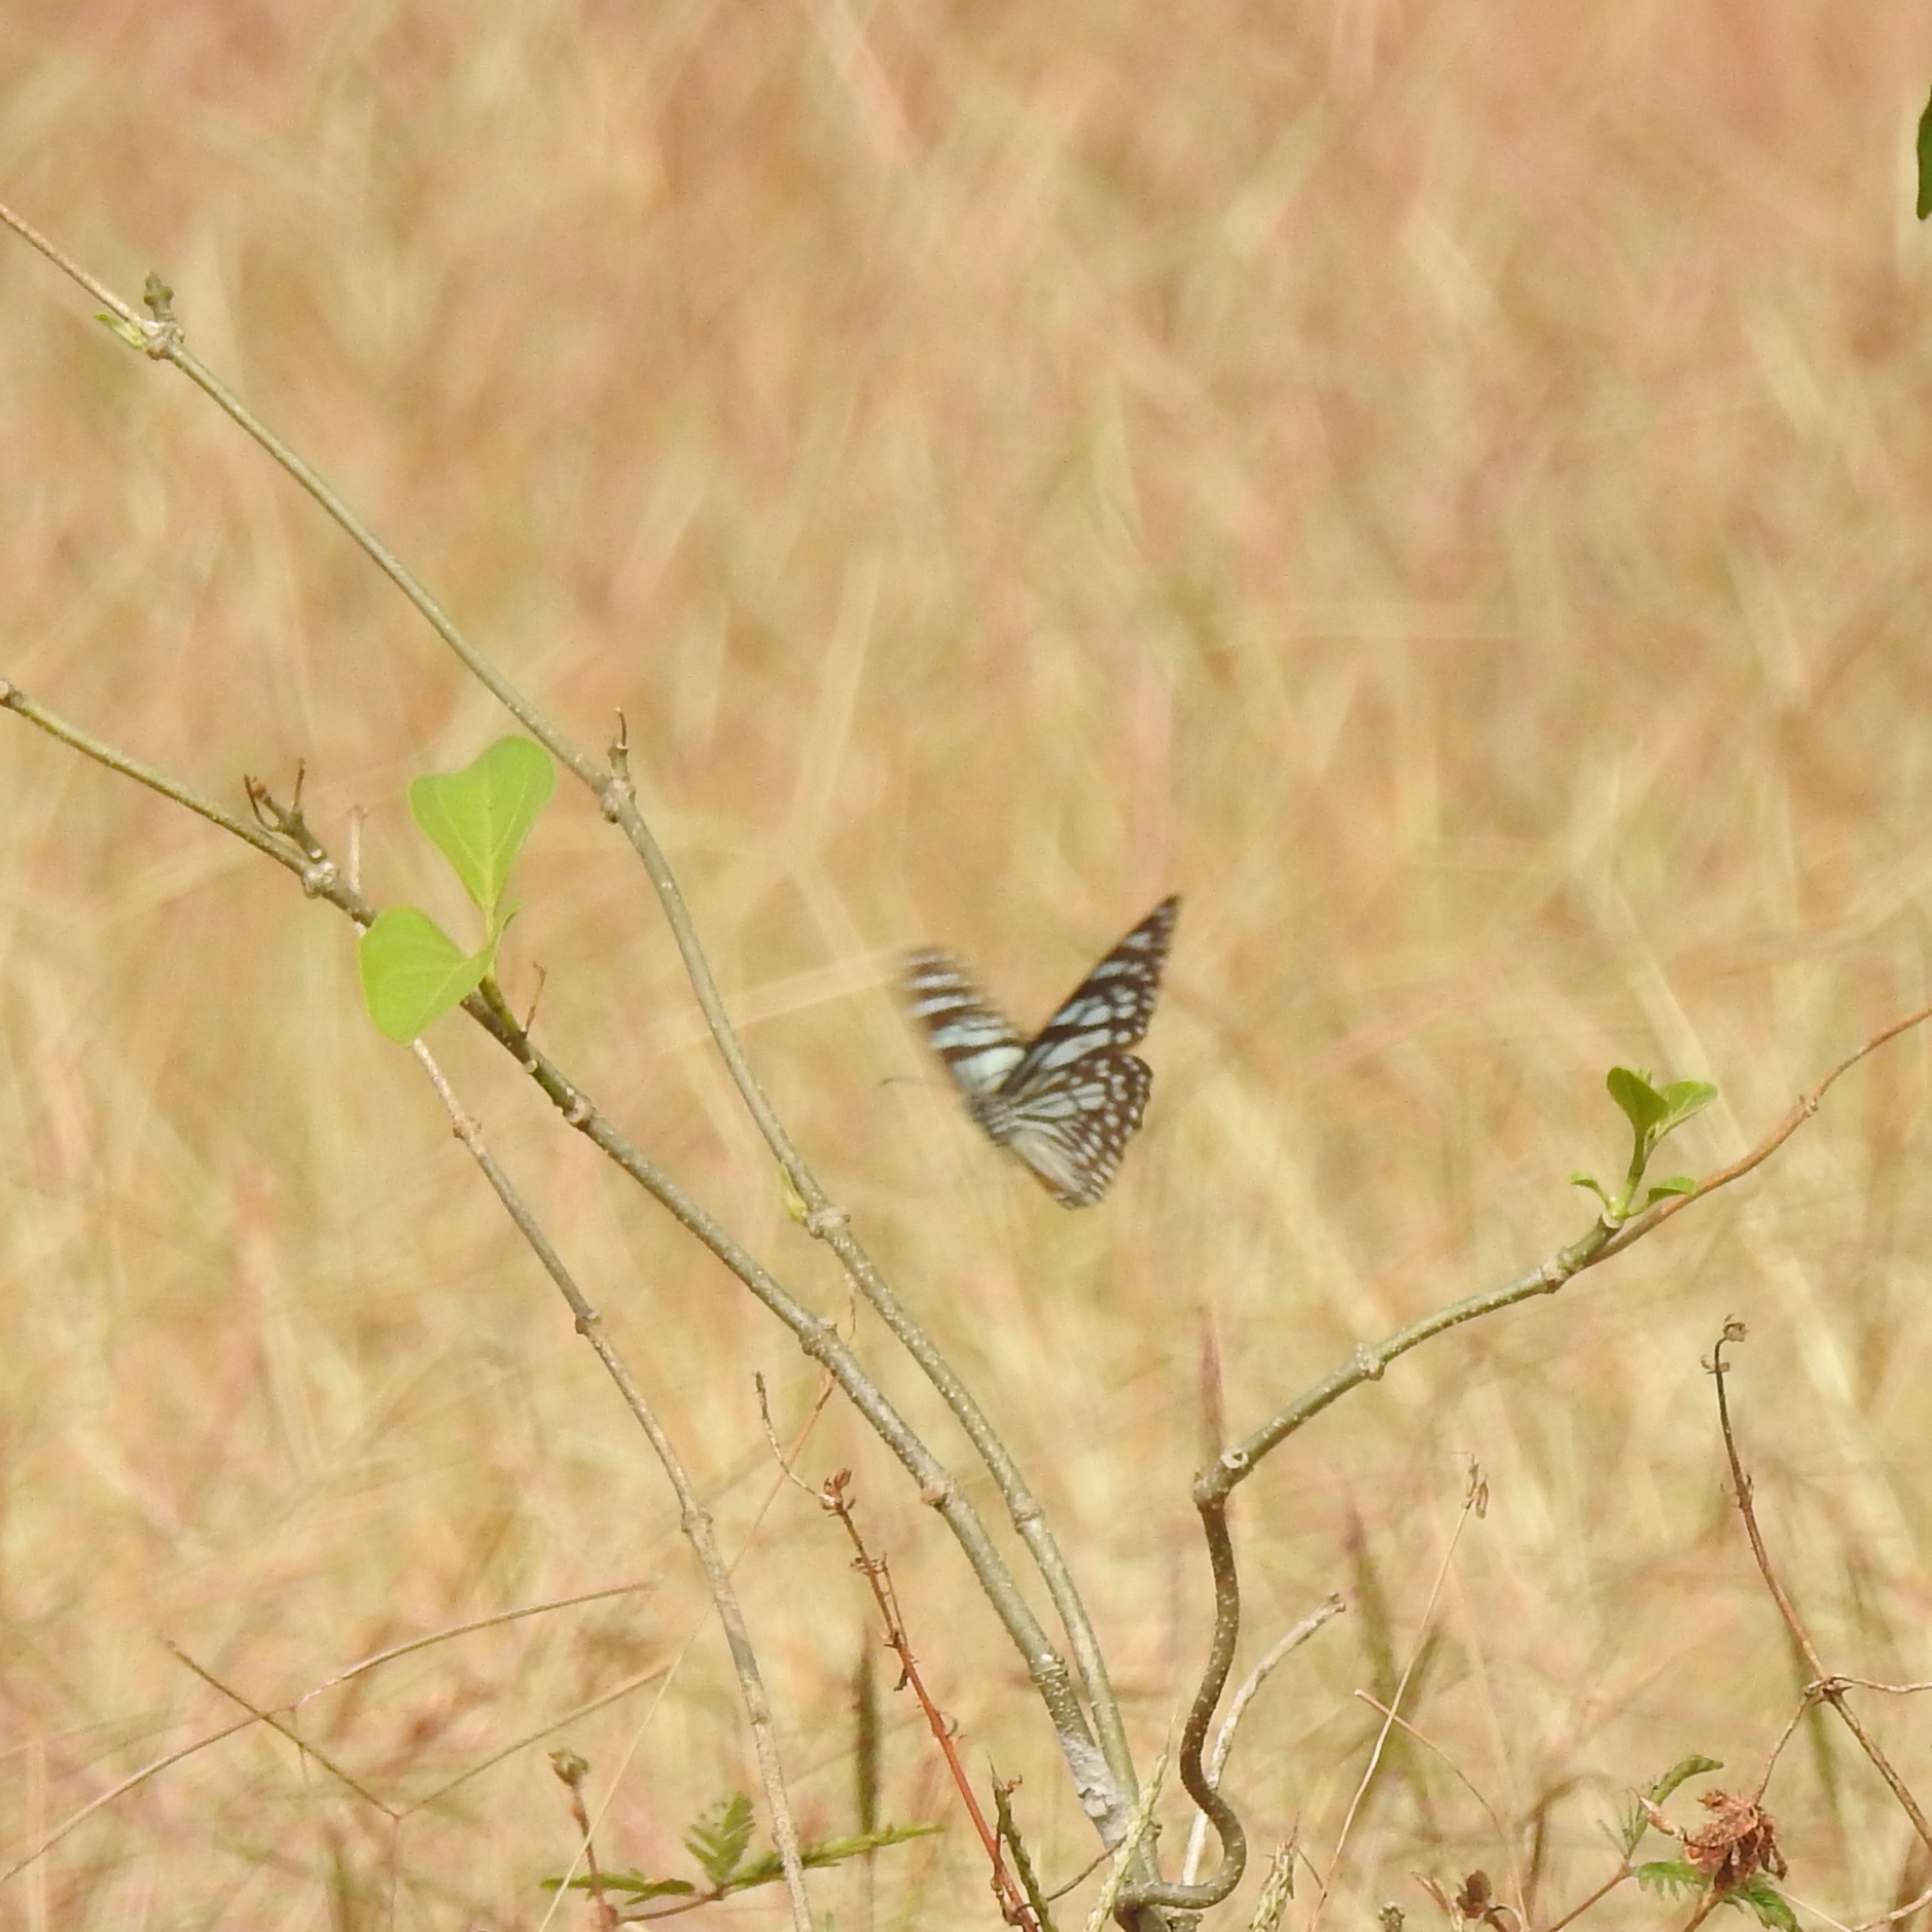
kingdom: Animalia
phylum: Arthropoda
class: Insecta
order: Lepidoptera
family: Nymphalidae
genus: Tirumala
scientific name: Tirumala limniace
